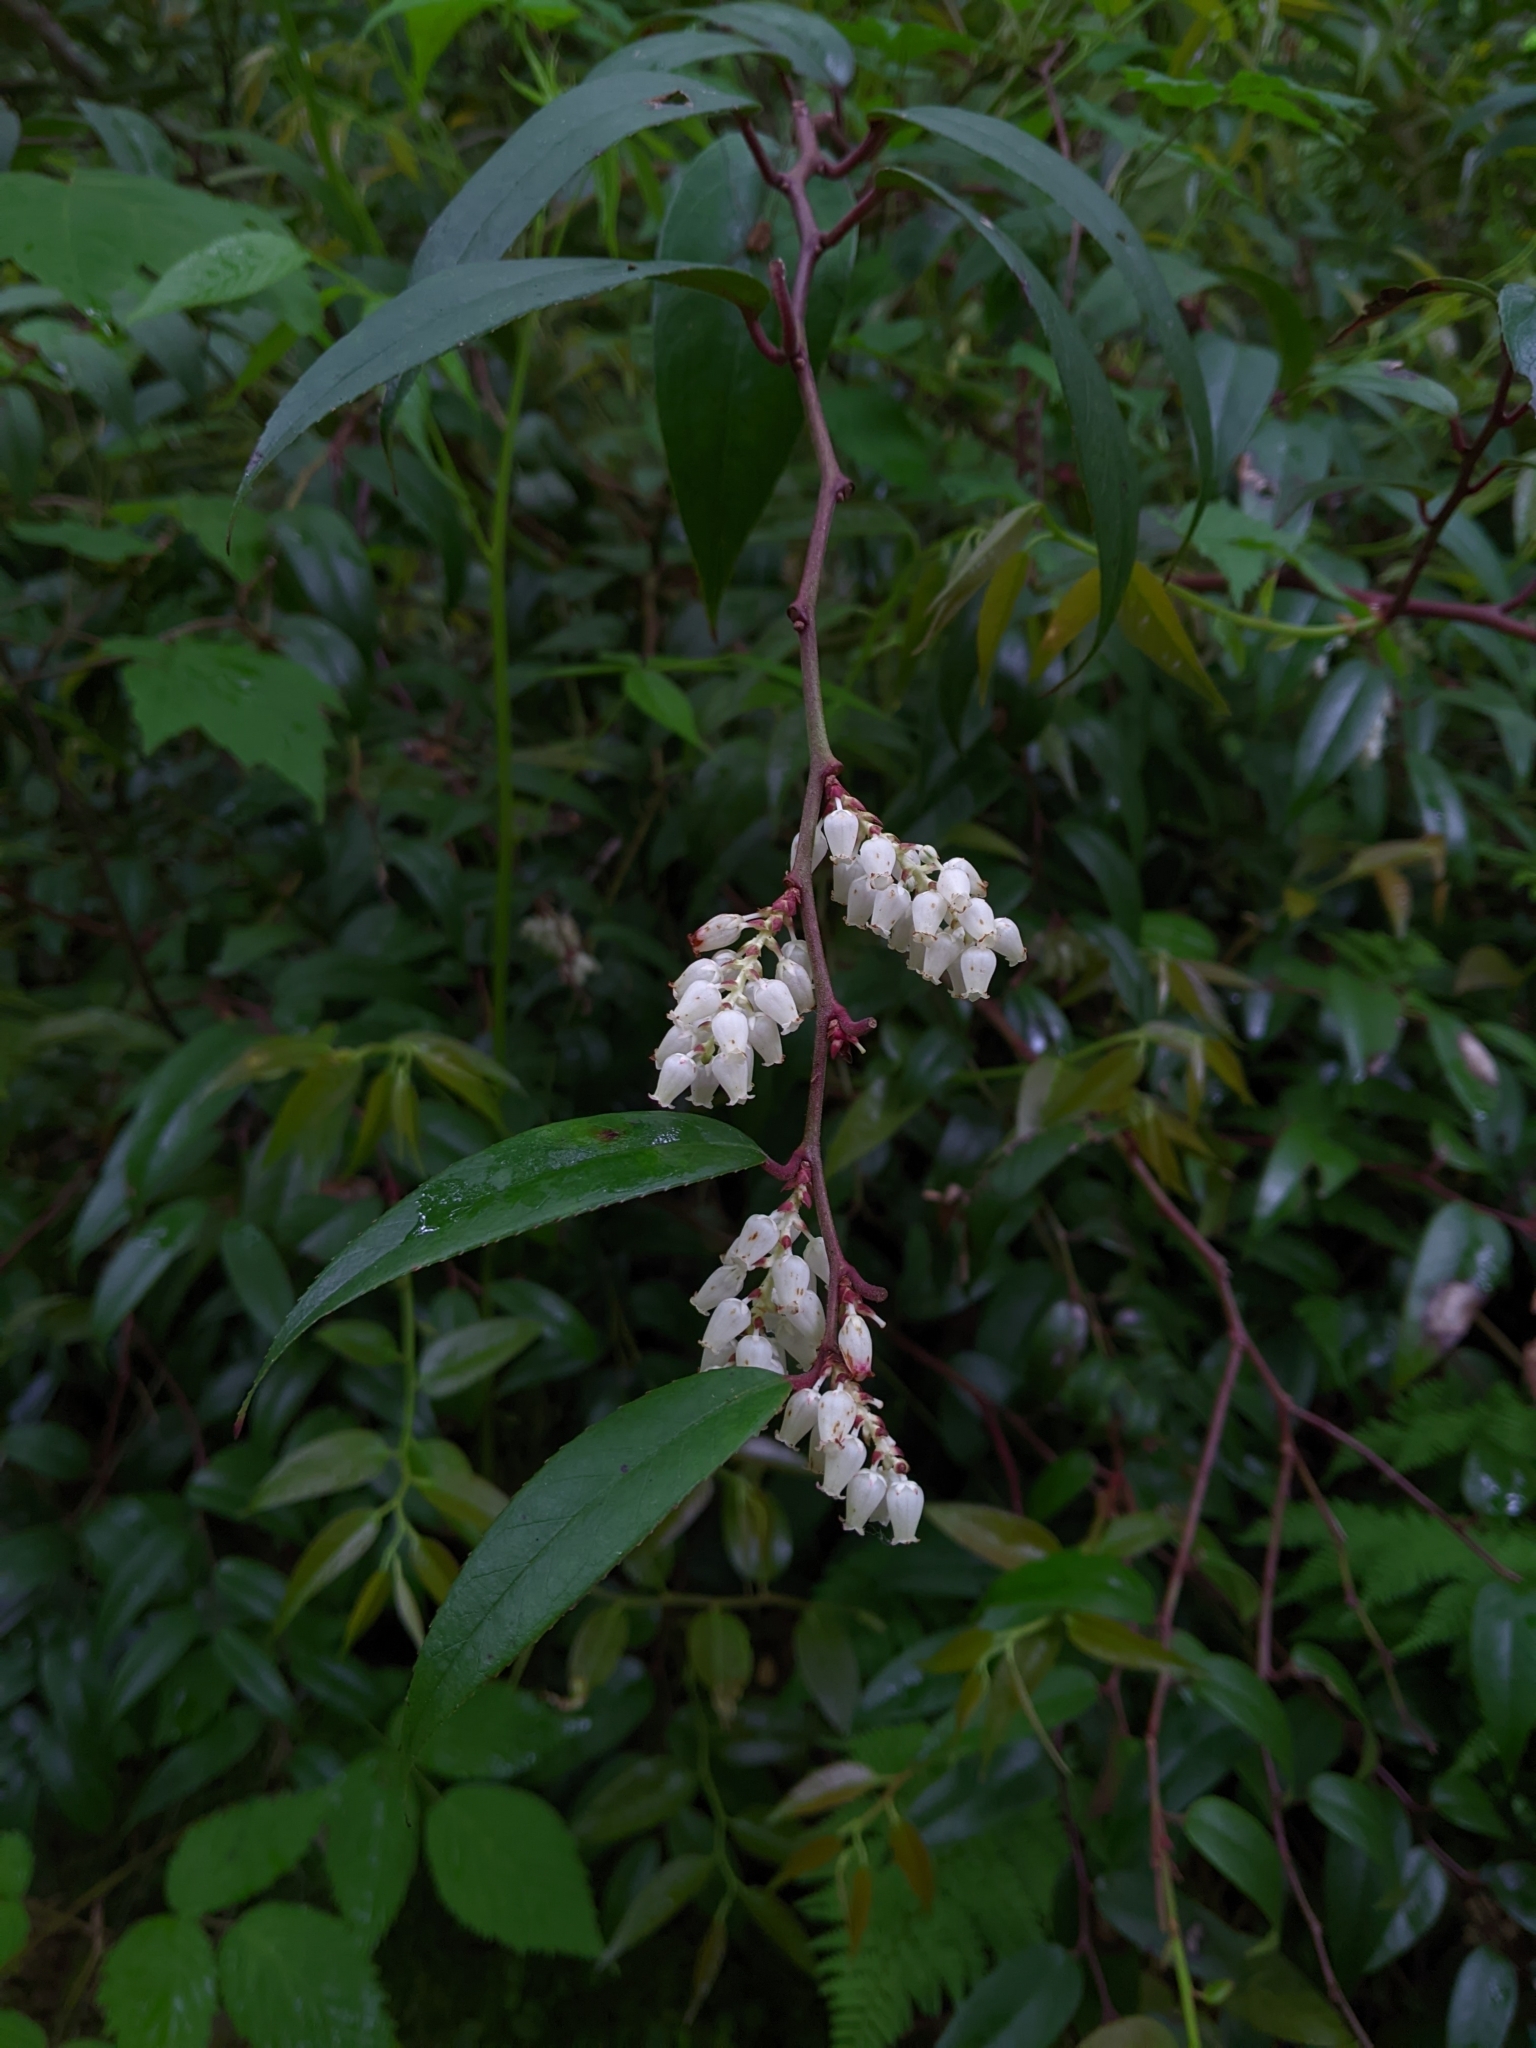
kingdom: Plantae
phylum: Tracheophyta
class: Magnoliopsida
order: Ericales
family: Ericaceae
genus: Leucothoe
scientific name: Leucothoe fontanesiana
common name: Fetterbush
